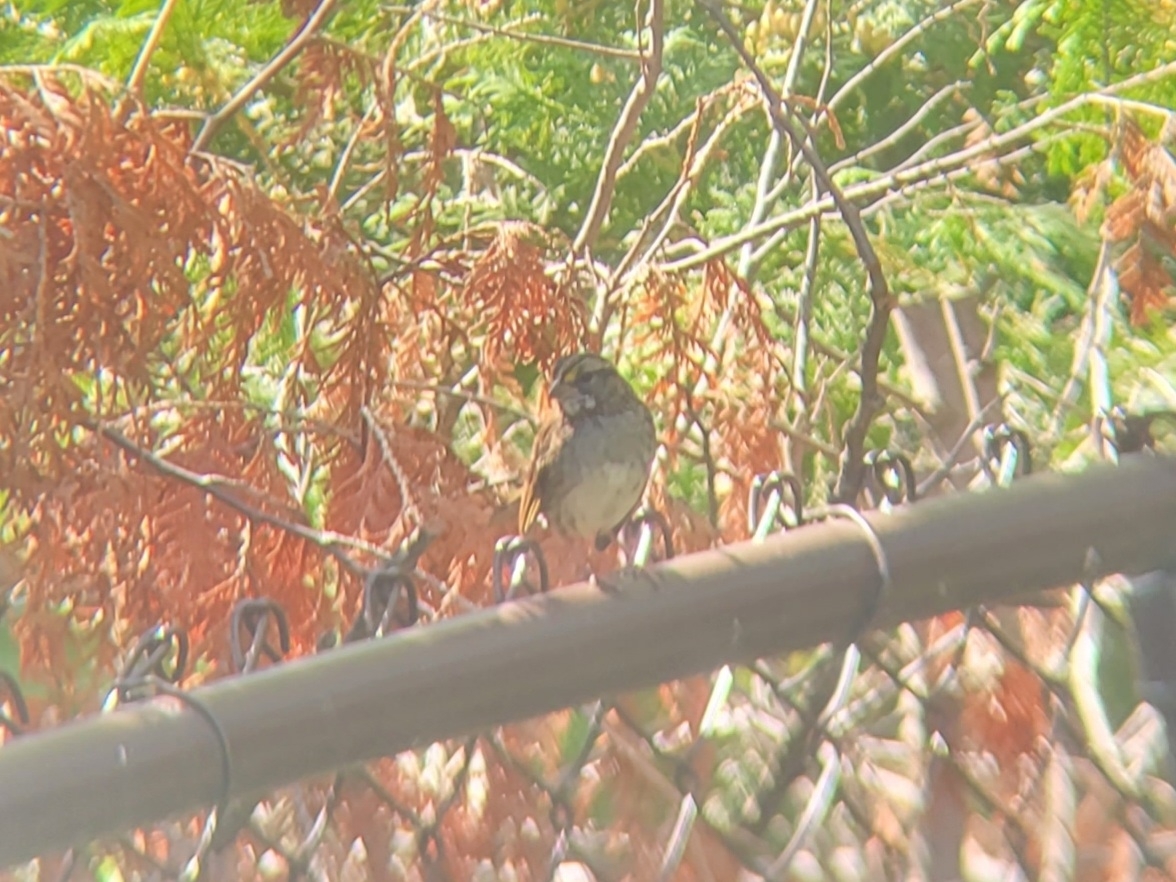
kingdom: Animalia
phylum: Chordata
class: Aves
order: Passeriformes
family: Passerellidae
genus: Zonotrichia
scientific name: Zonotrichia albicollis
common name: White-throated sparrow
